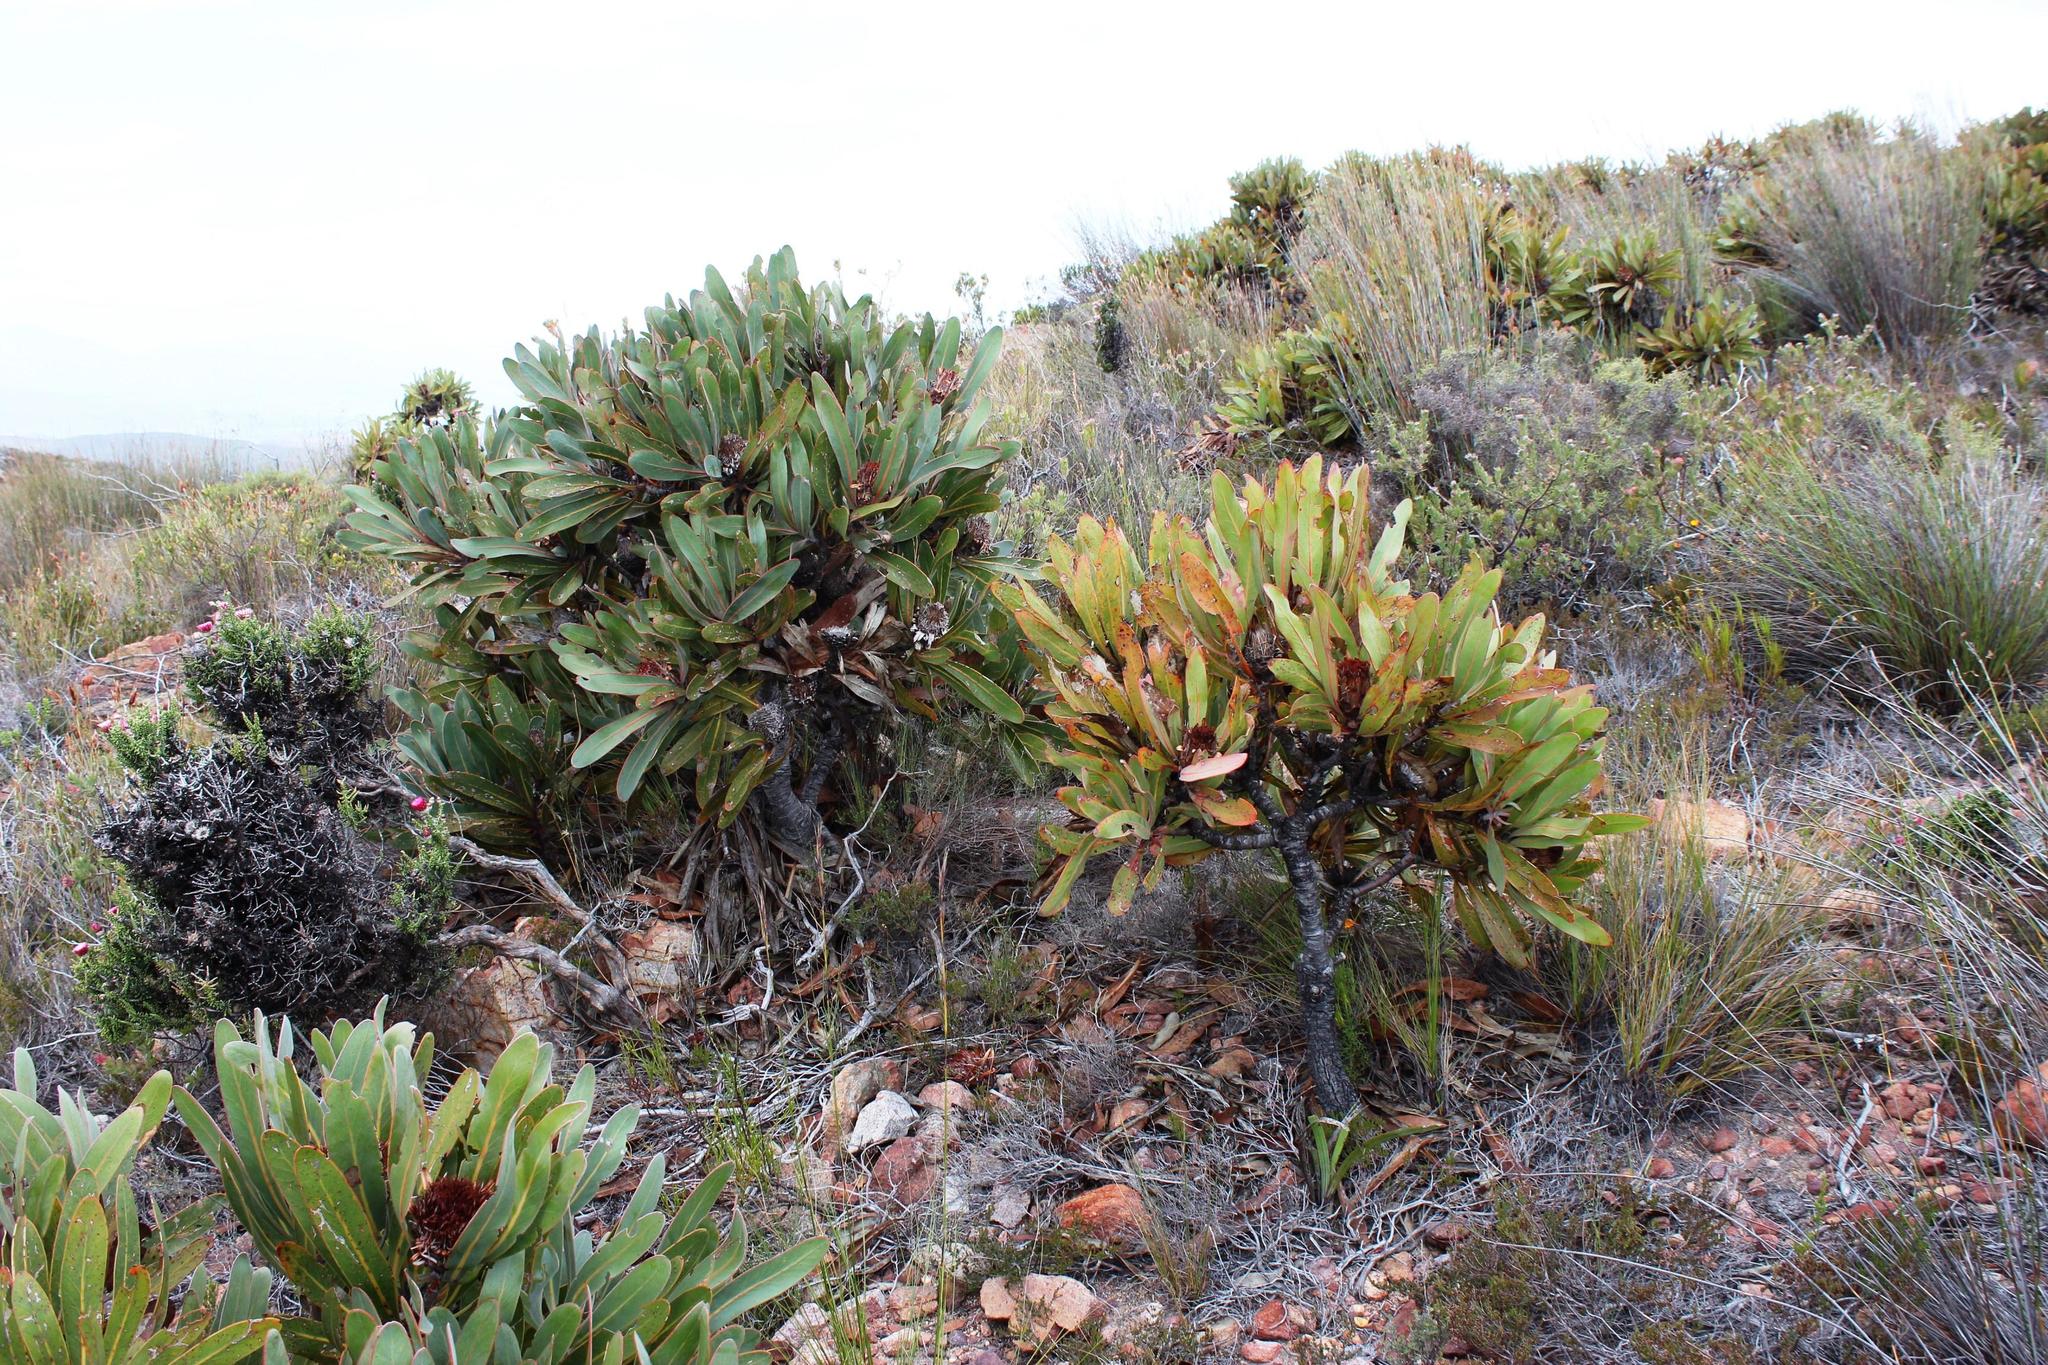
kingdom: Plantae
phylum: Tracheophyta
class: Magnoliopsida
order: Proteales
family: Proteaceae
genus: Protea
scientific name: Protea lorifolia
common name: Strap-leaved protea
